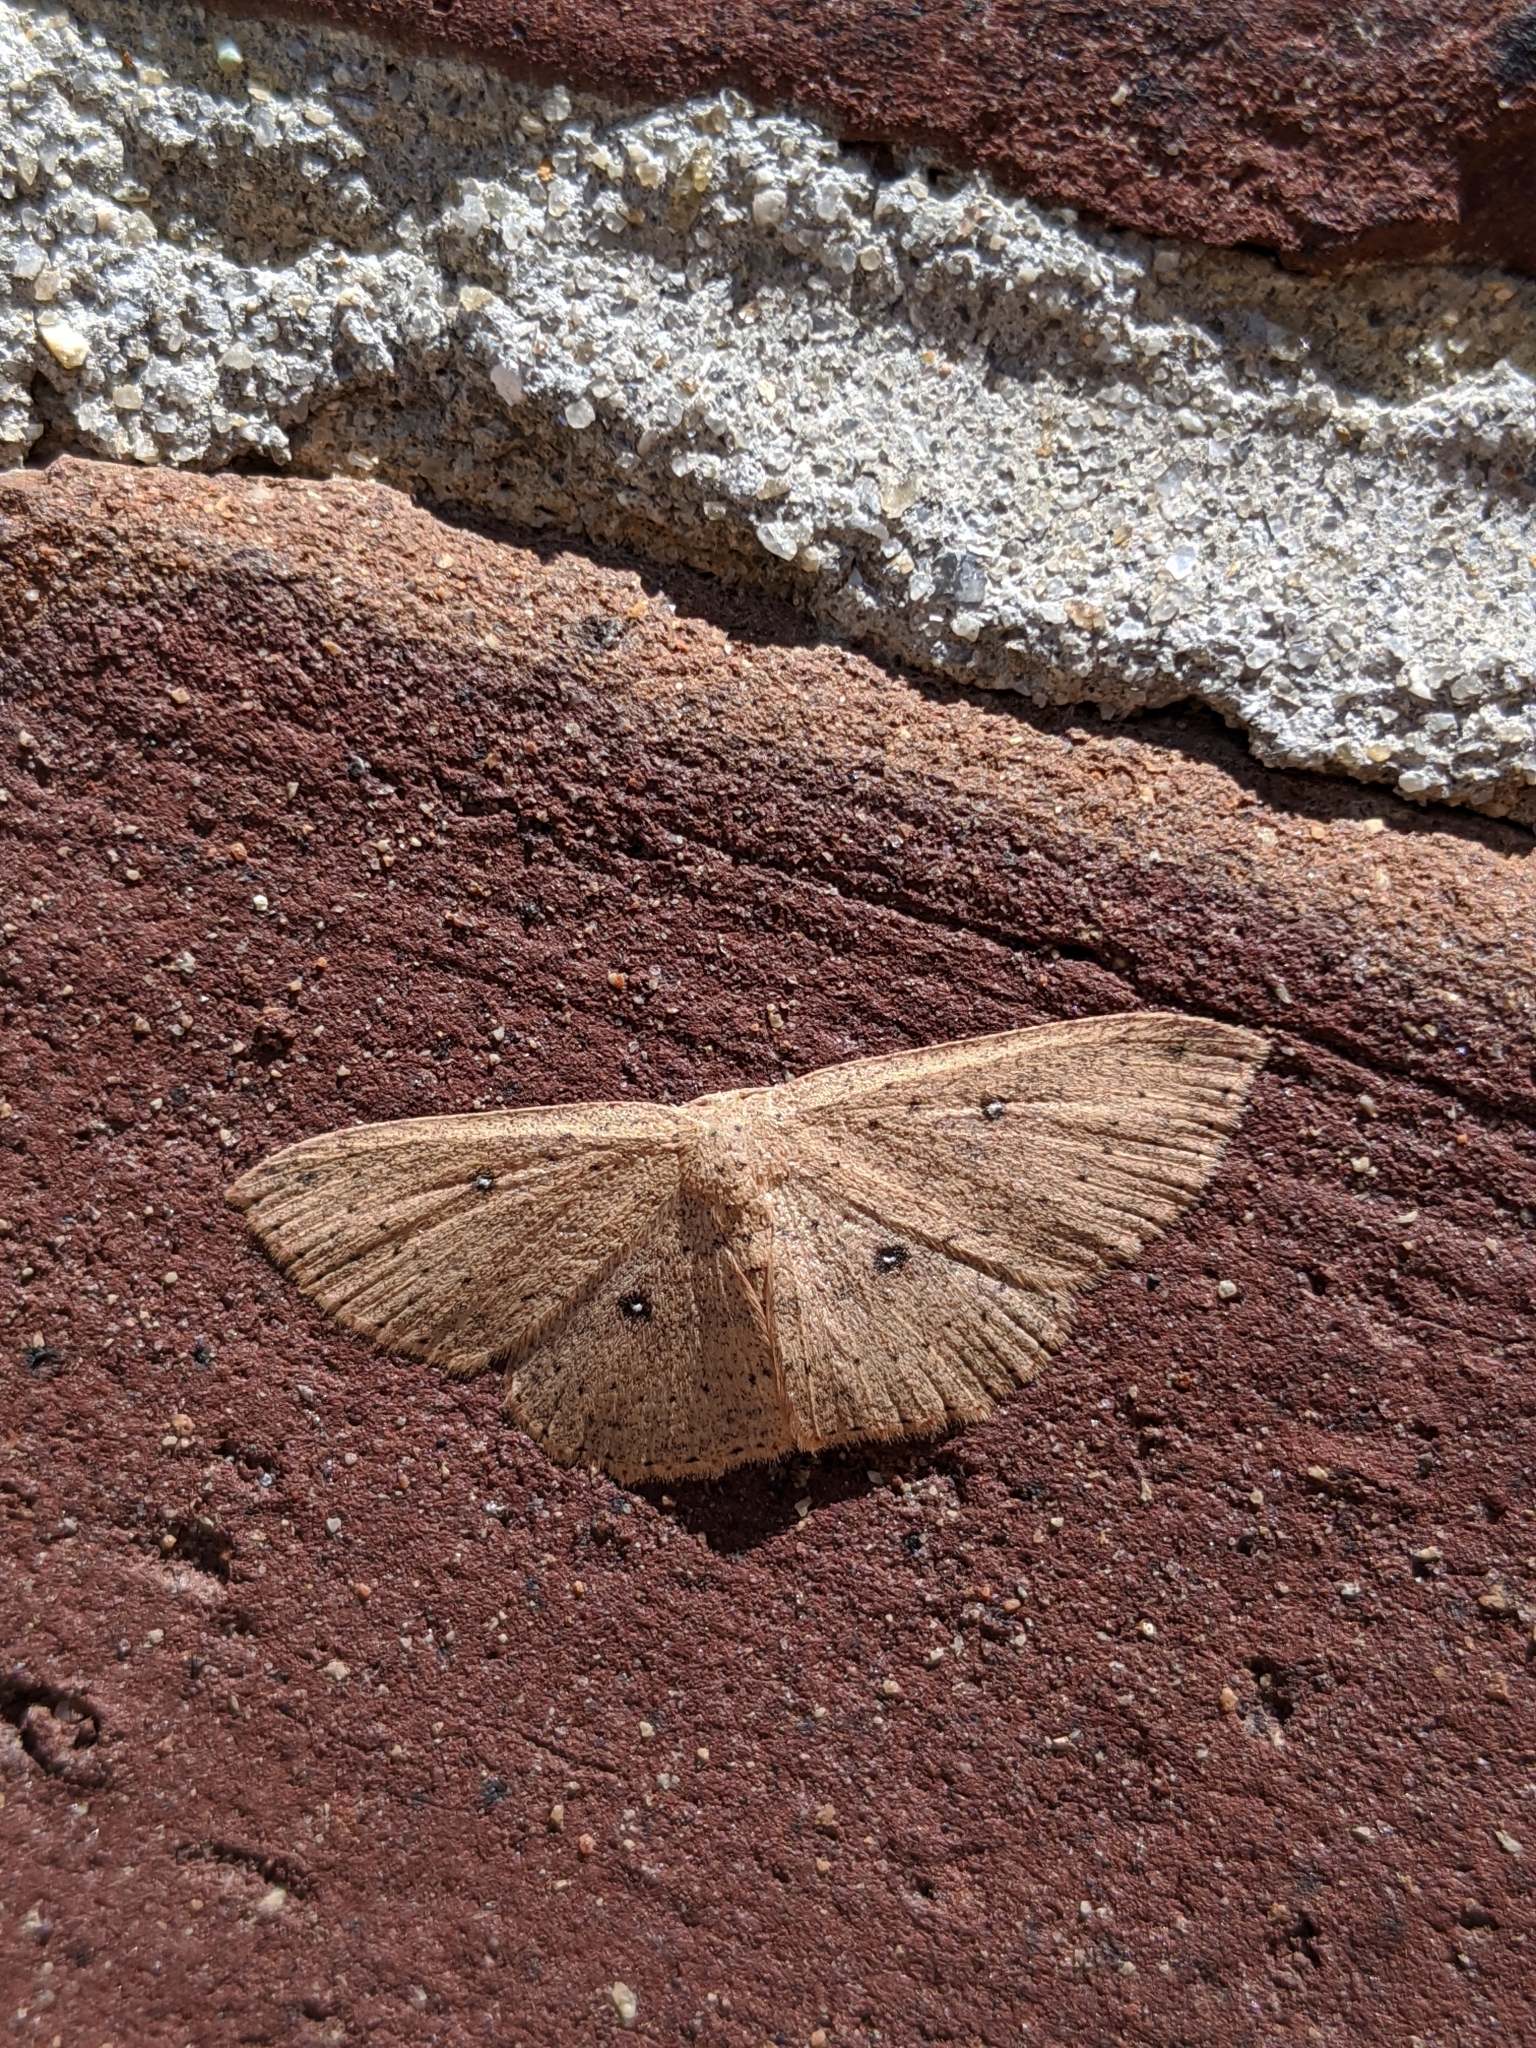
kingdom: Animalia
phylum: Arthropoda
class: Insecta
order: Lepidoptera
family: Geometridae
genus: Cyclophora
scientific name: Cyclophora myrtaria
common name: Waxmyrtle wave moth
